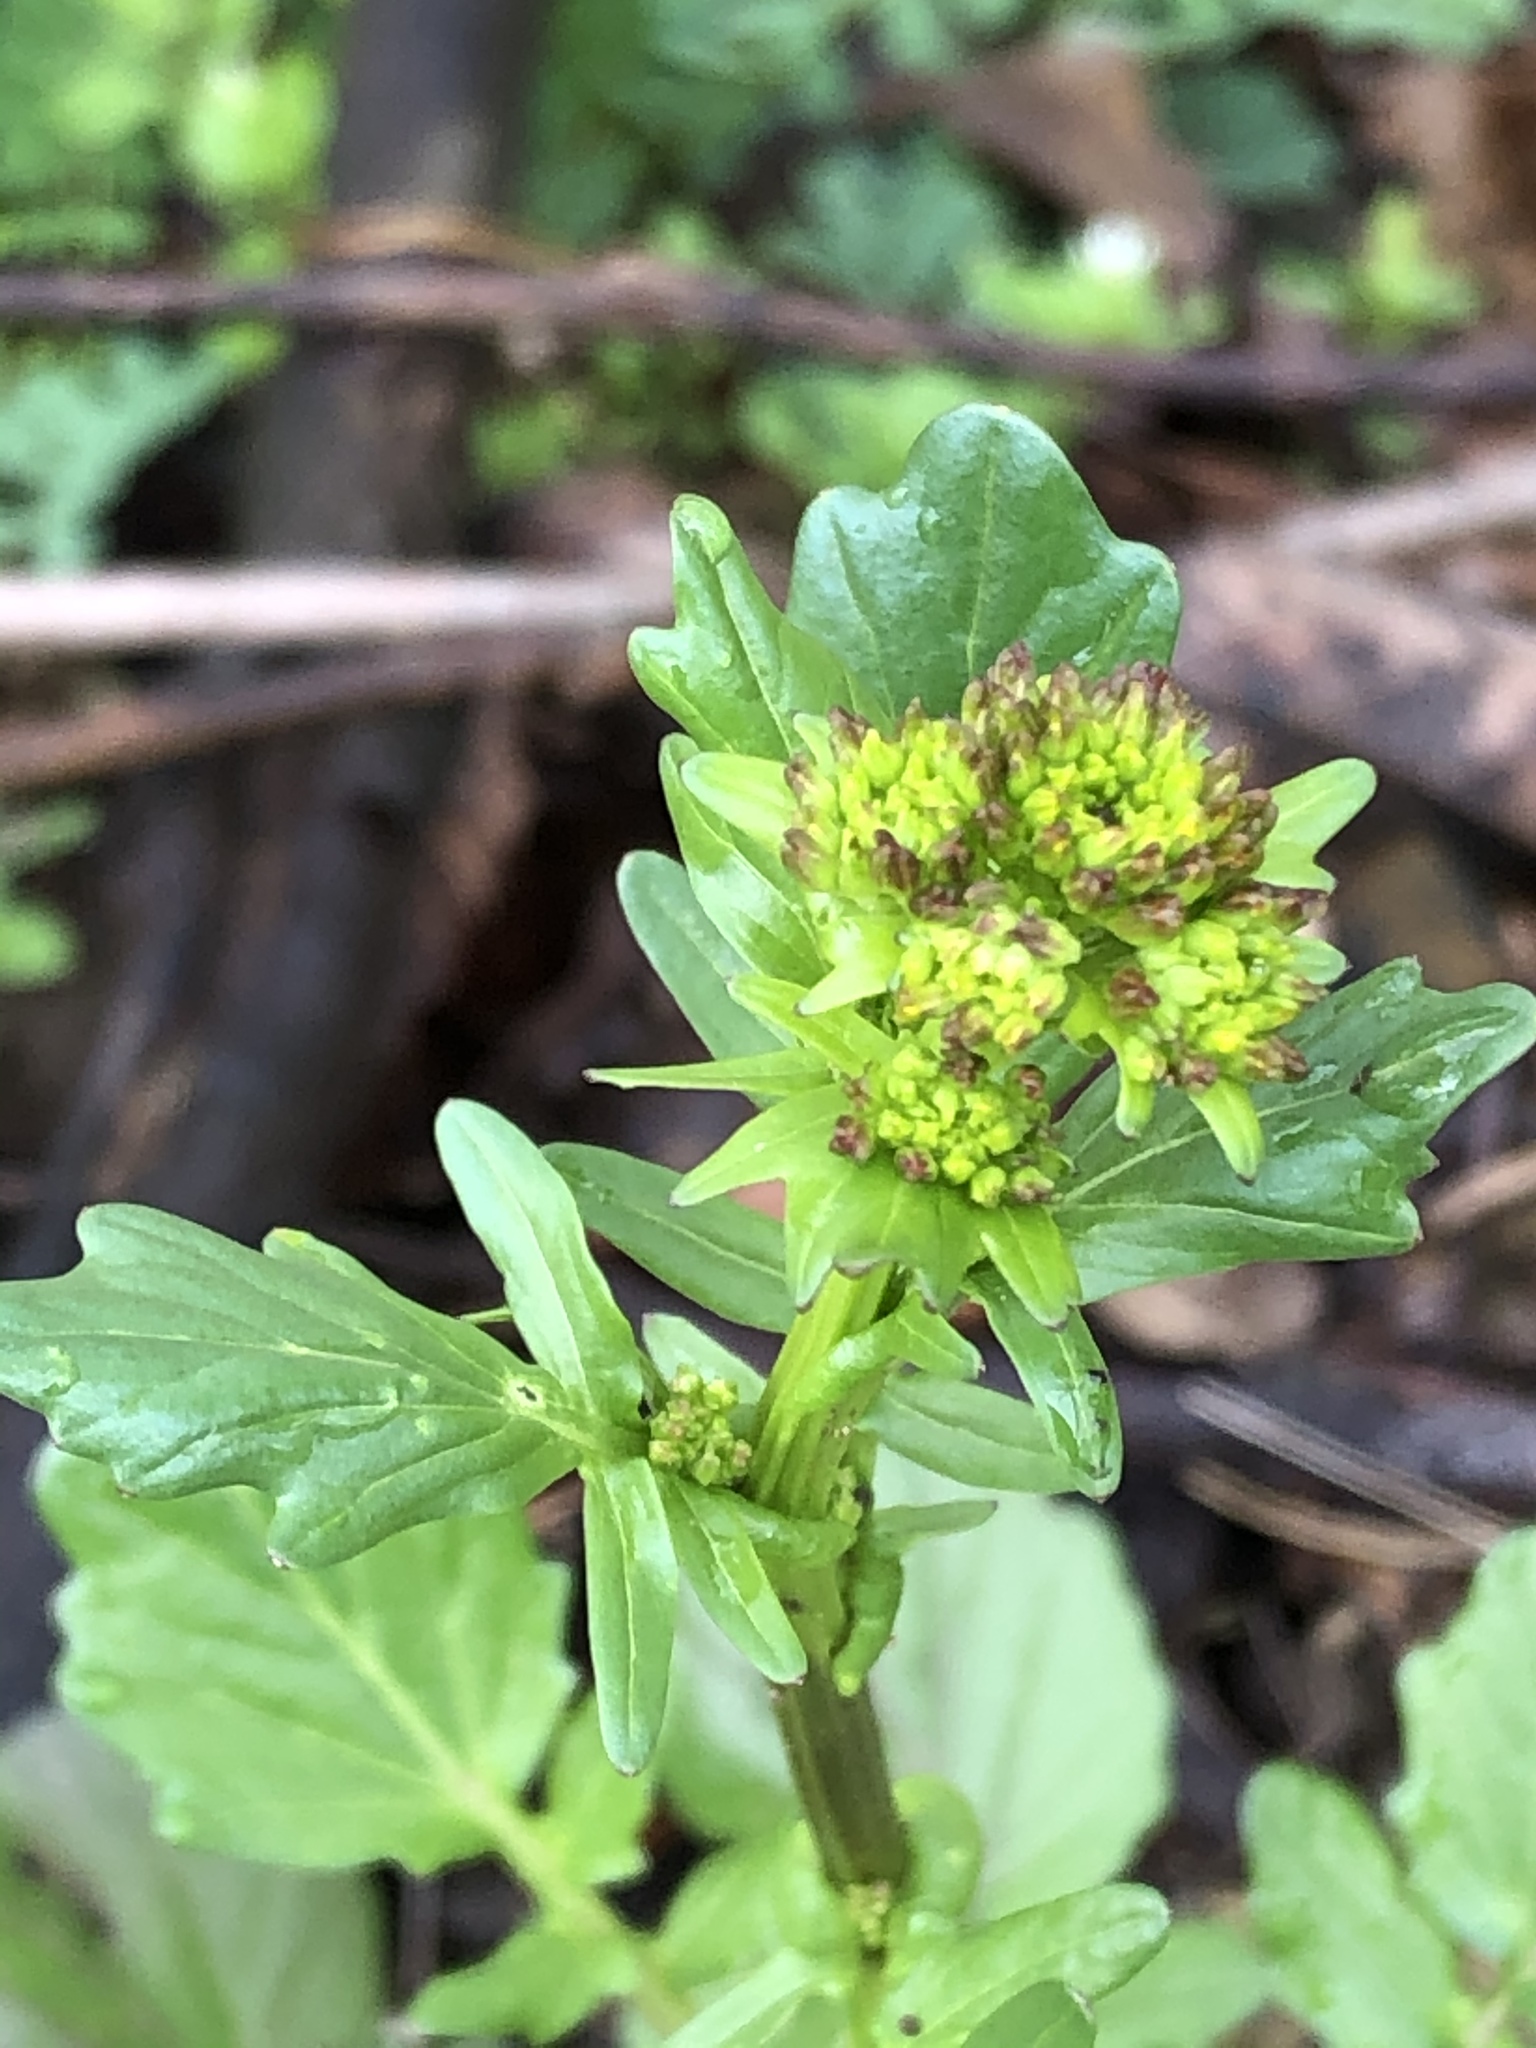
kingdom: Plantae
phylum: Tracheophyta
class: Magnoliopsida
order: Brassicales
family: Brassicaceae
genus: Barbarea
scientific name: Barbarea vulgaris
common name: Cressy-greens
